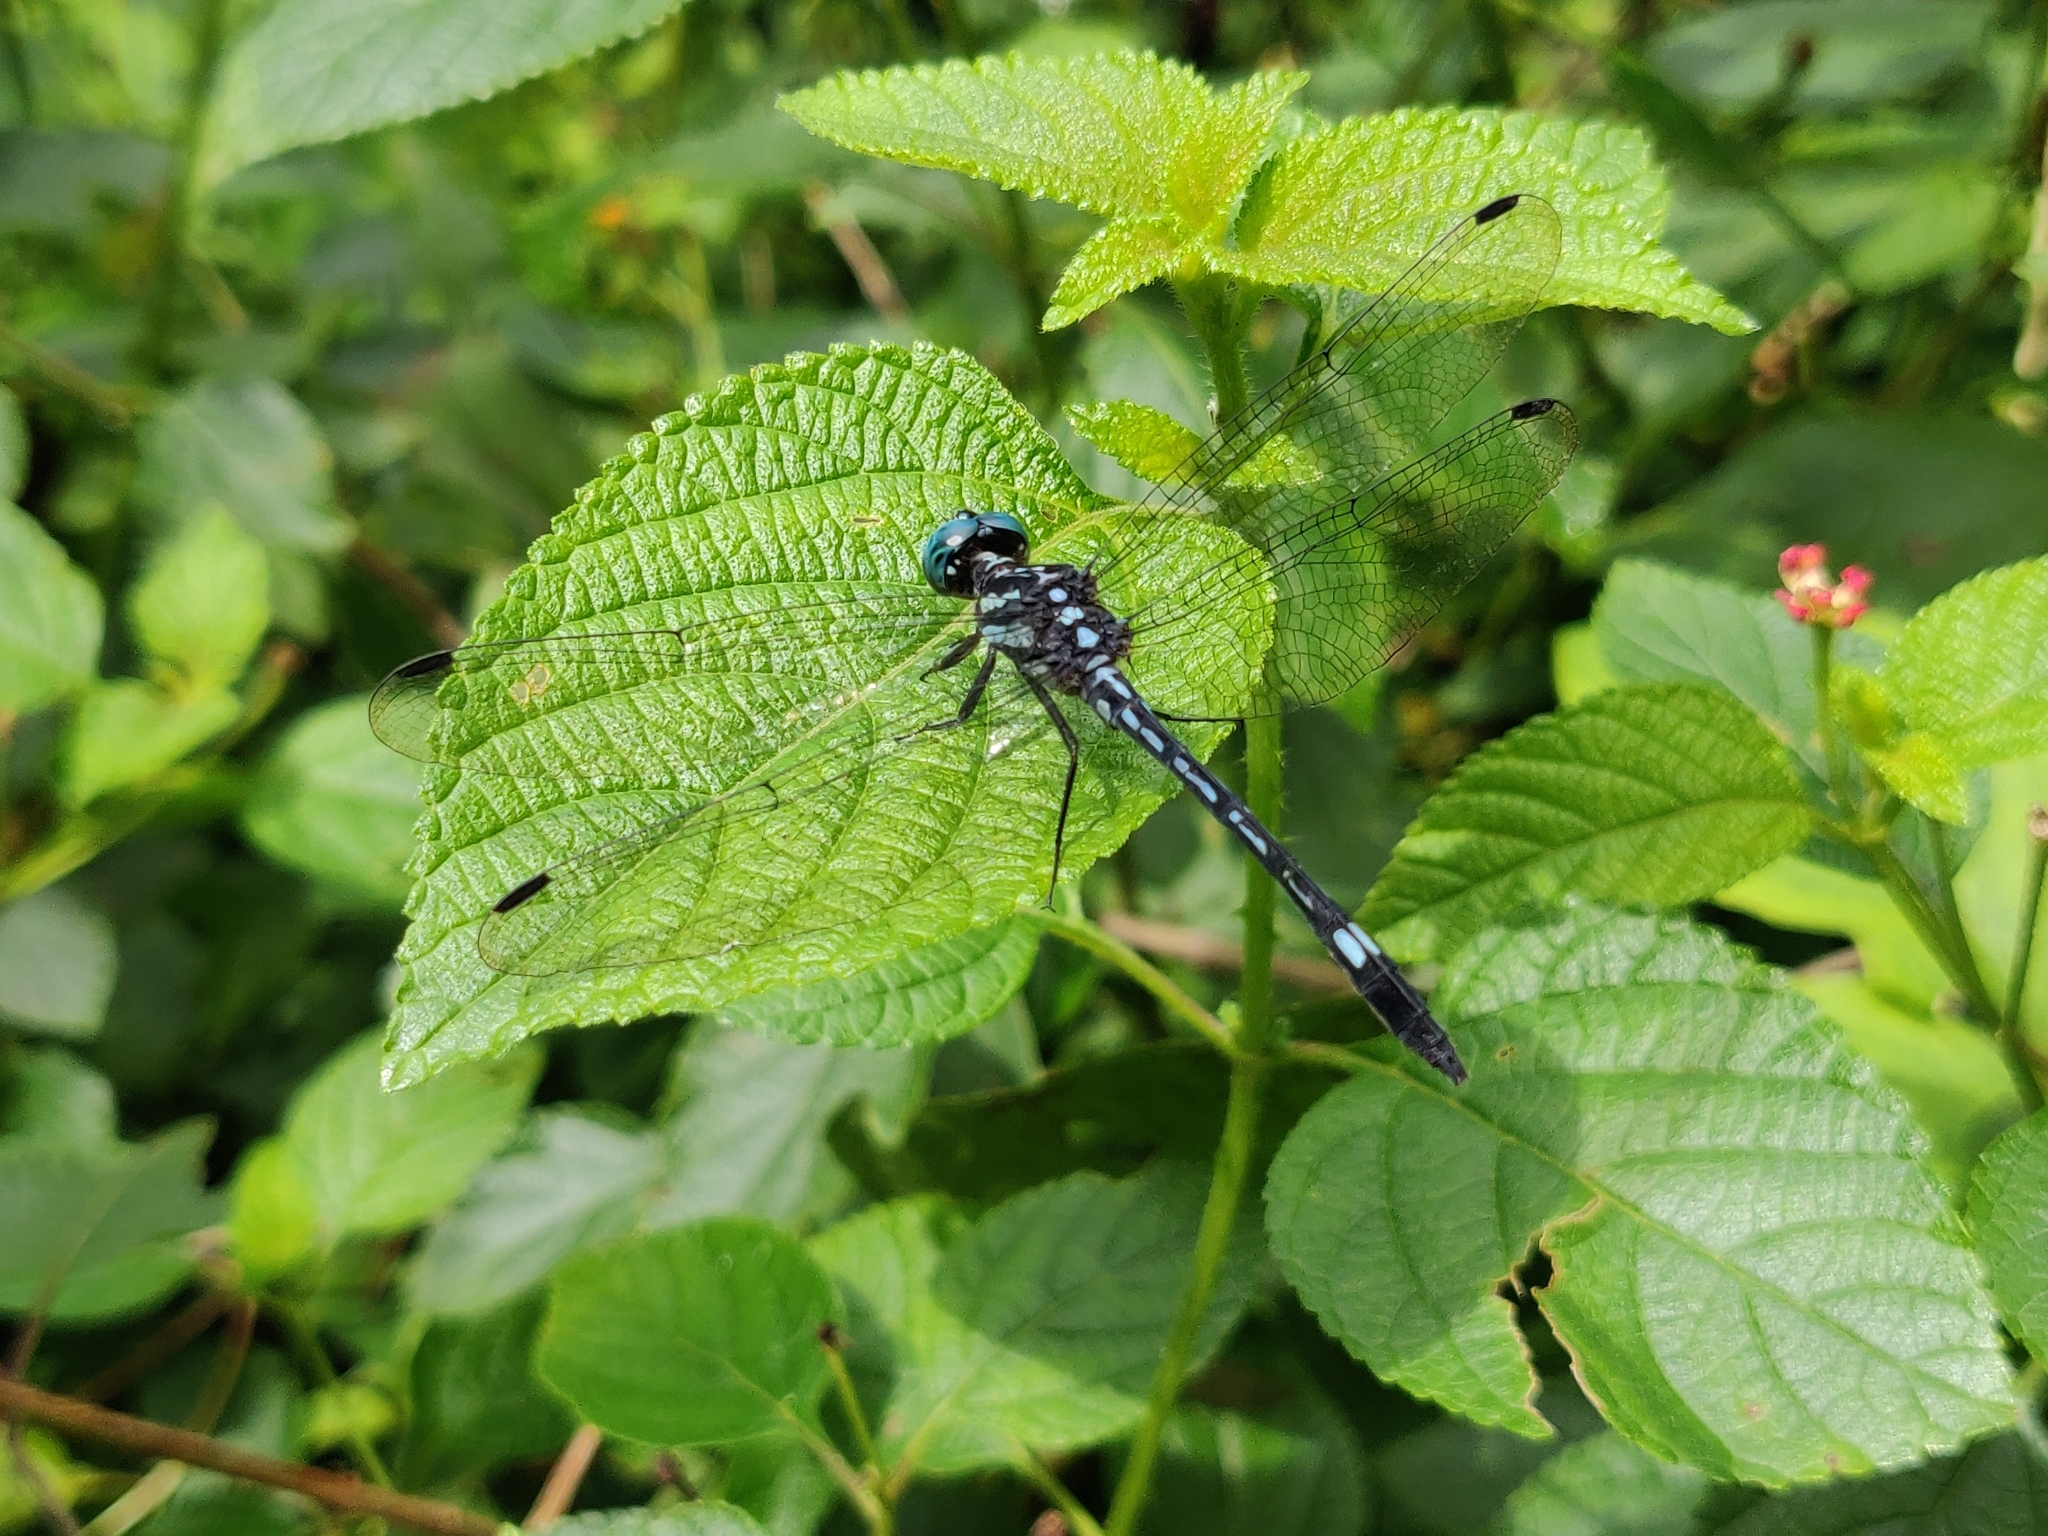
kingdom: Animalia
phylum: Arthropoda
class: Insecta
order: Odonata
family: Libellulidae
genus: Hylaeothemis
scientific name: Hylaeothemis apicalis
